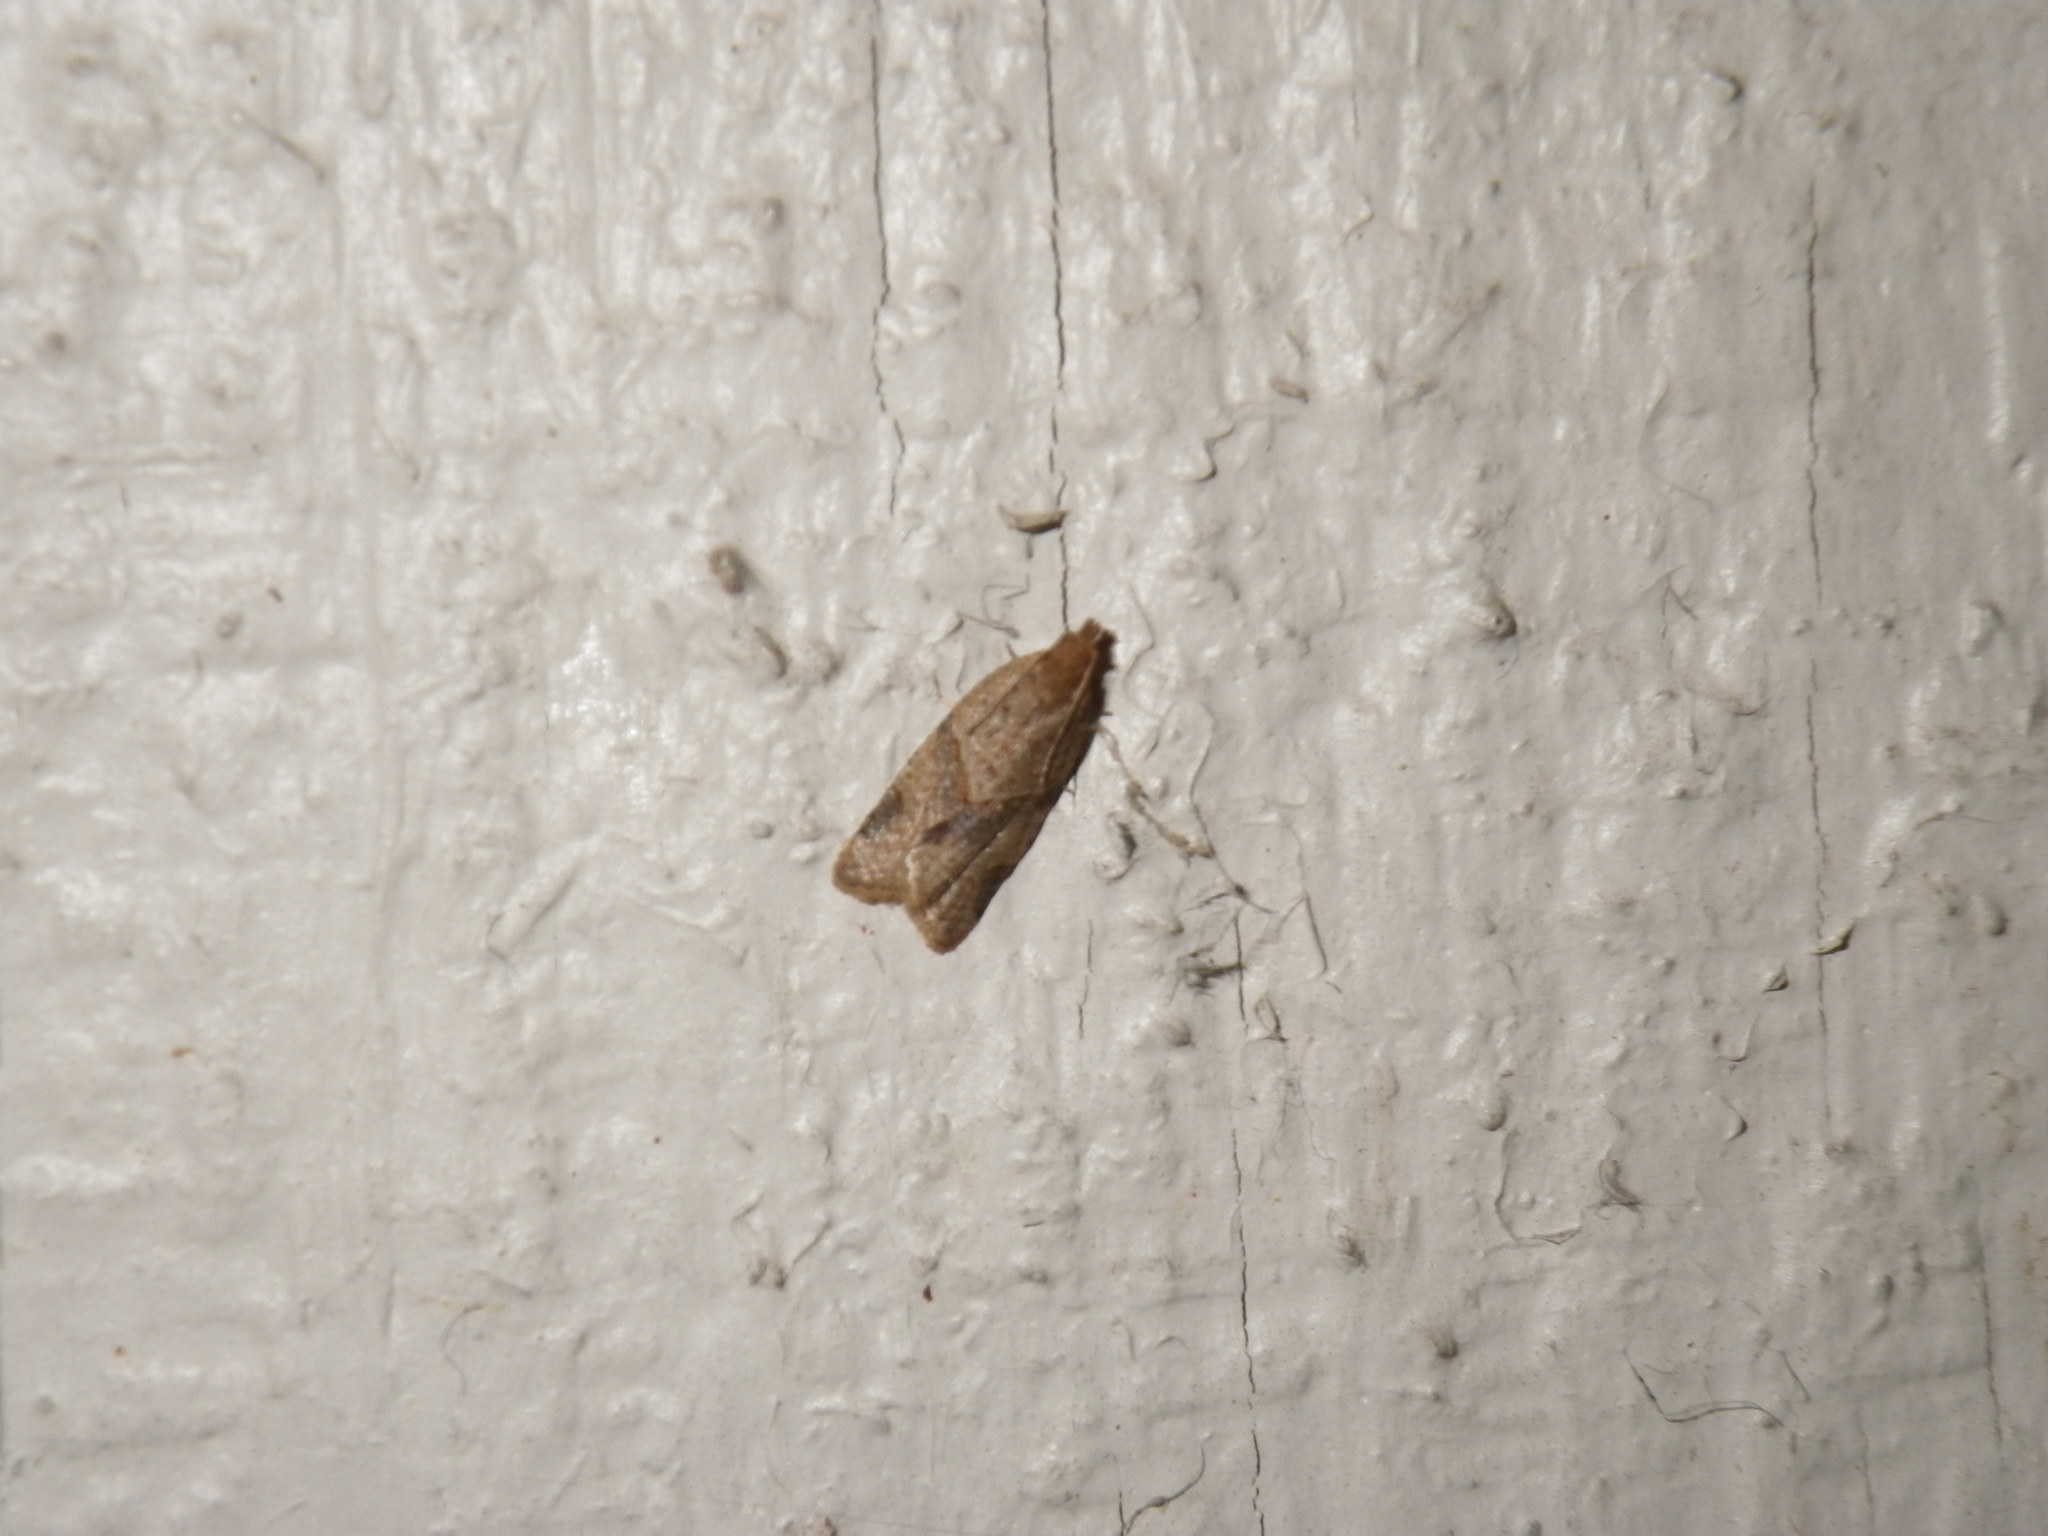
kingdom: Animalia
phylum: Arthropoda
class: Insecta
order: Lepidoptera
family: Tortricidae
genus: Clepsis
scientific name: Clepsis peritana
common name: Garden tortrix
